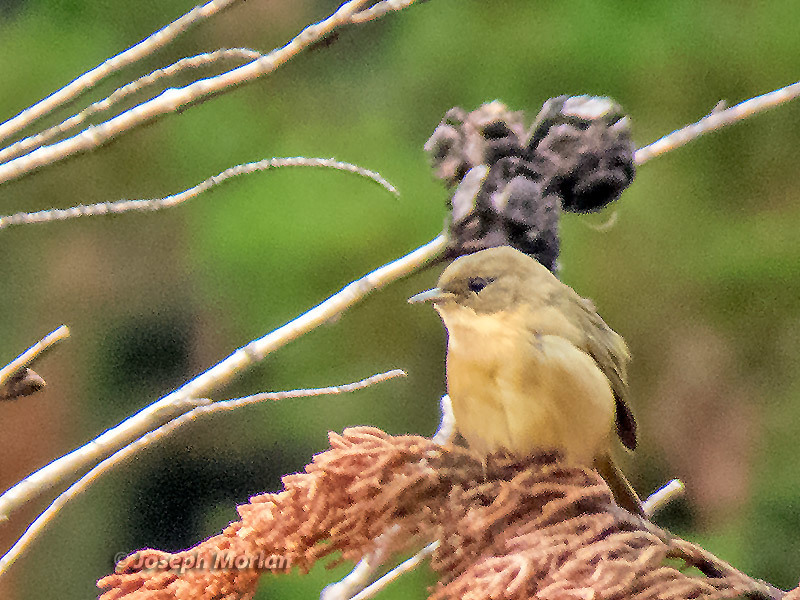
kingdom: Animalia
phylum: Chordata
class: Aves
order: Passeriformes
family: Parulidae
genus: Geothlypis
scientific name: Geothlypis trichas
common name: Common yellowthroat
